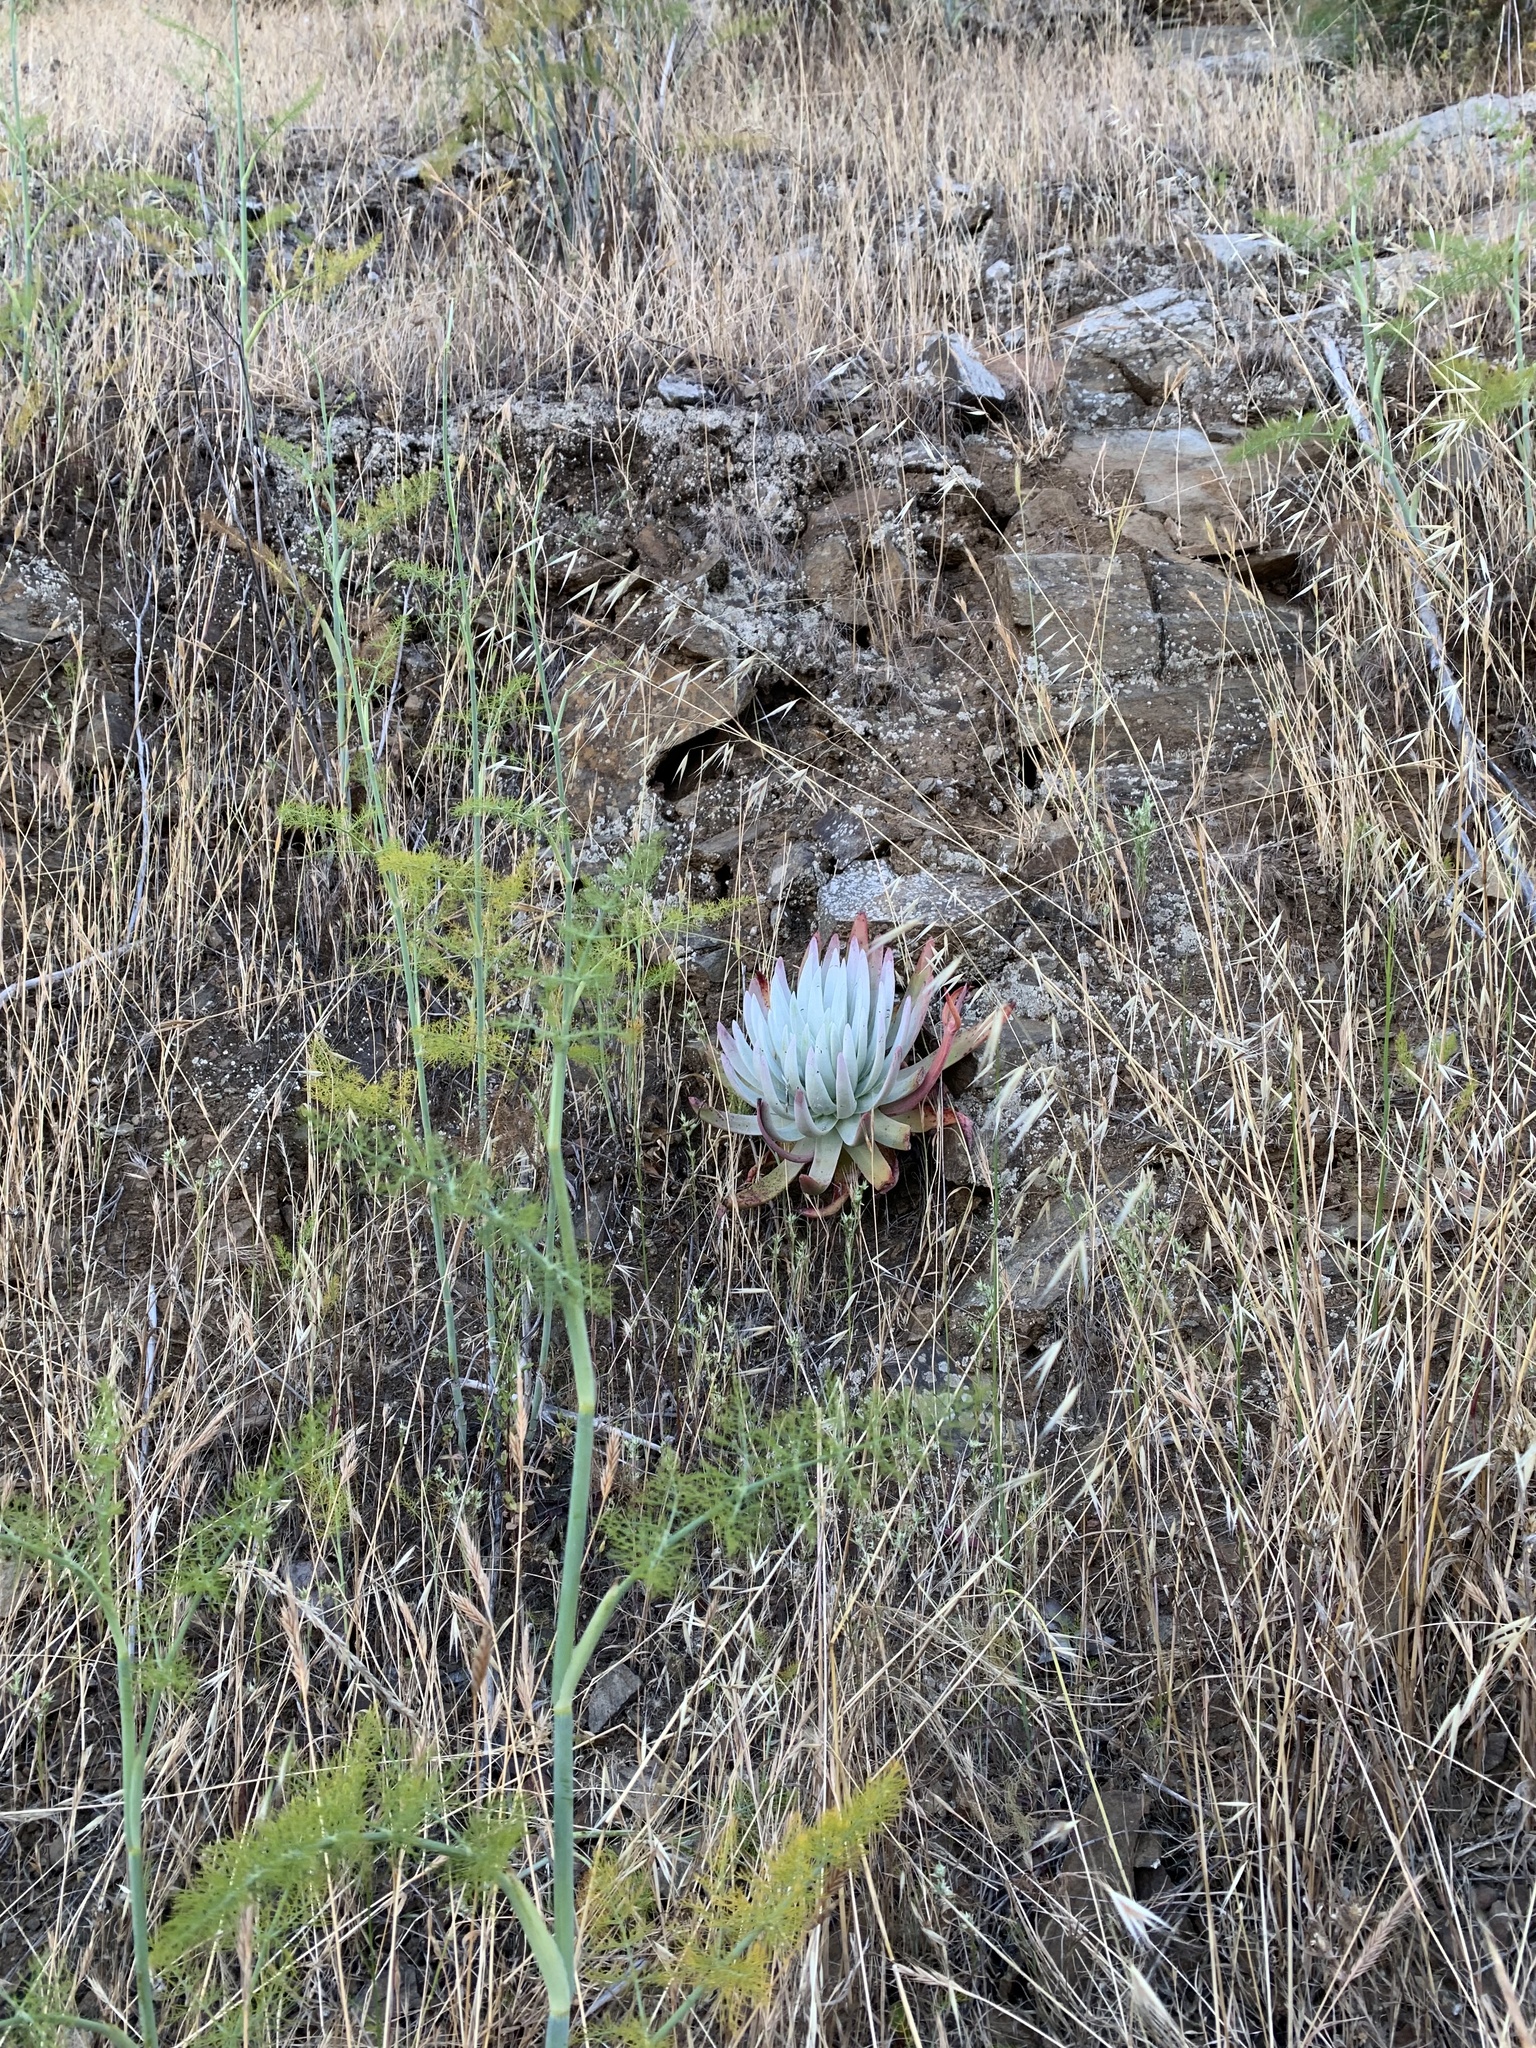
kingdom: Plantae
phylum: Tracheophyta
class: Magnoliopsida
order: Saxifragales
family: Crassulaceae
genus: Dudleya
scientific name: Dudleya virens
